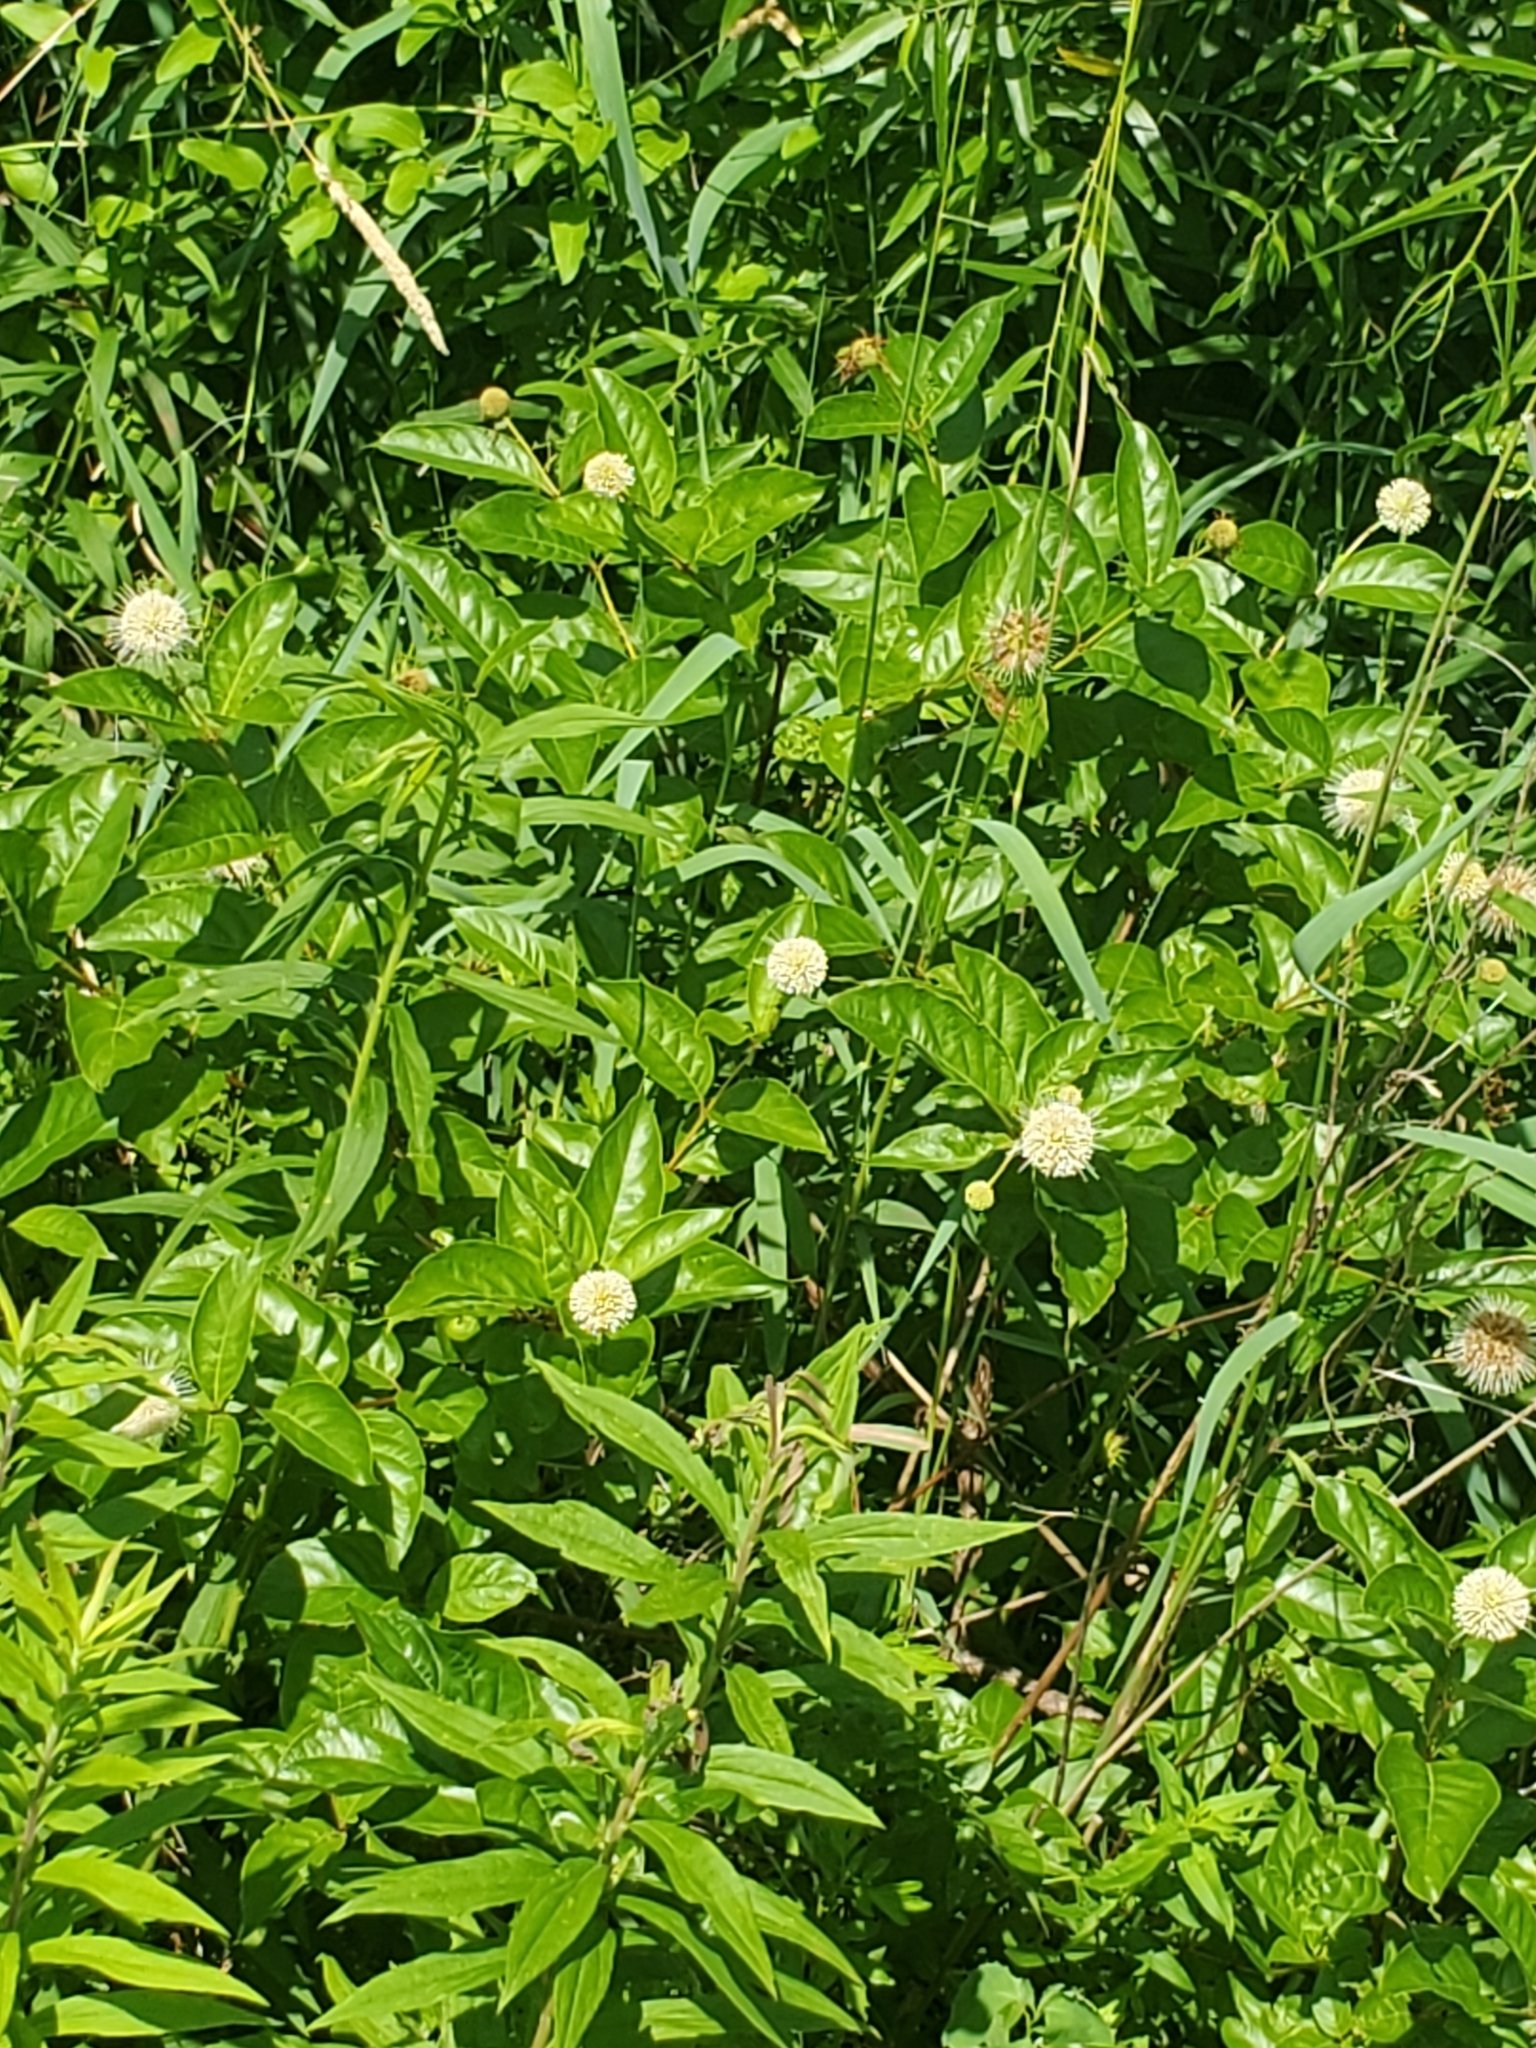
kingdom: Plantae
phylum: Tracheophyta
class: Magnoliopsida
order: Gentianales
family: Rubiaceae
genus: Cephalanthus
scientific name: Cephalanthus occidentalis
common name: Button-willow
